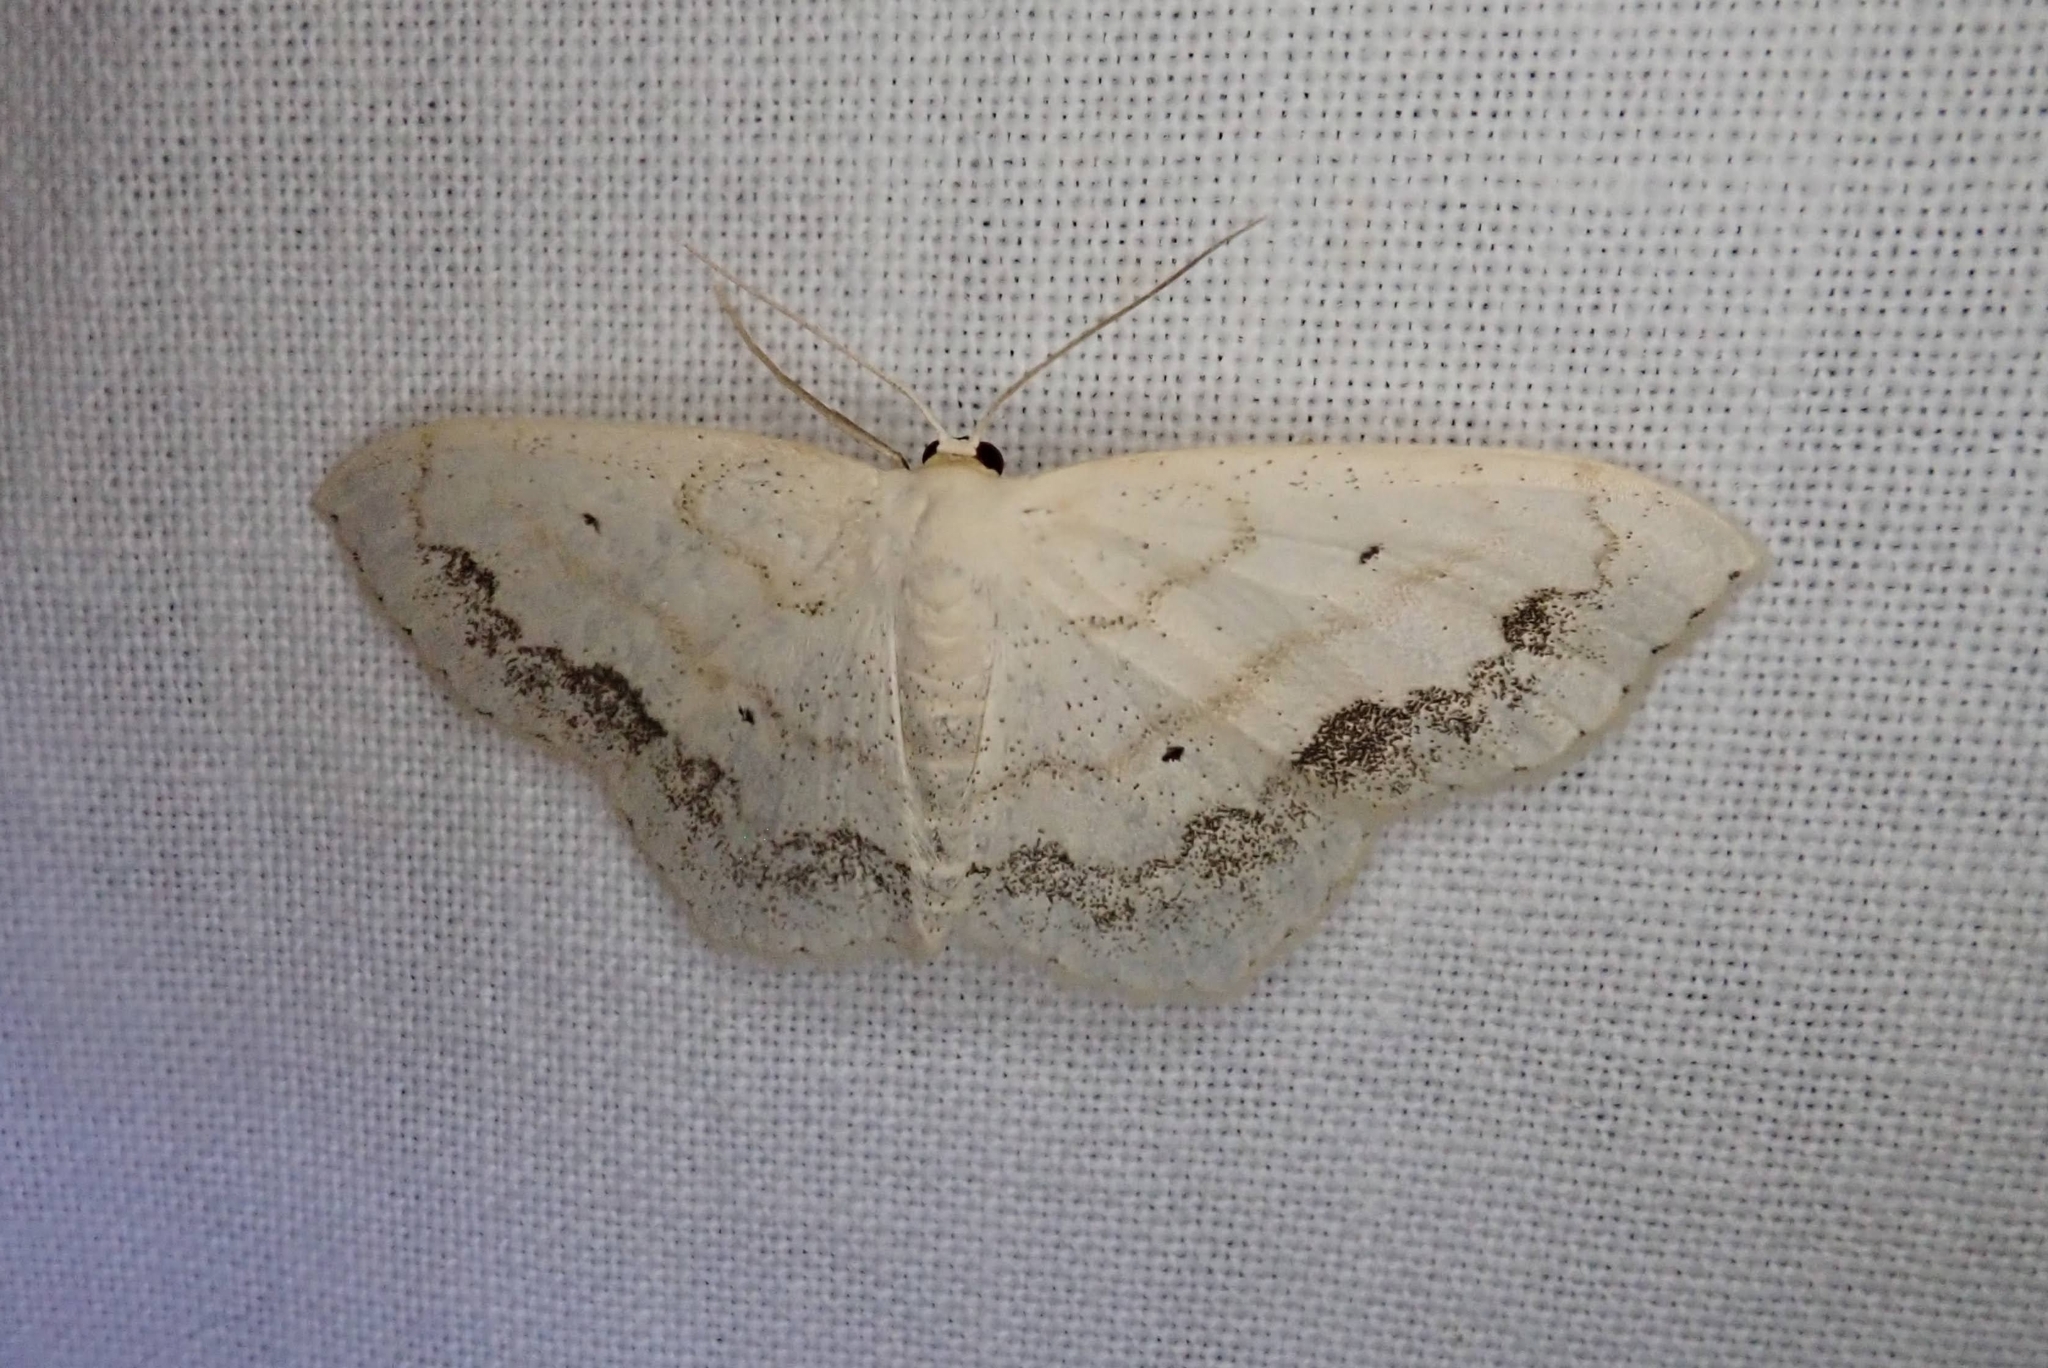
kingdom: Animalia
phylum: Arthropoda
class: Insecta
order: Lepidoptera
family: Geometridae
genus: Scopula
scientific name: Scopula limboundata
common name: Large lace border
